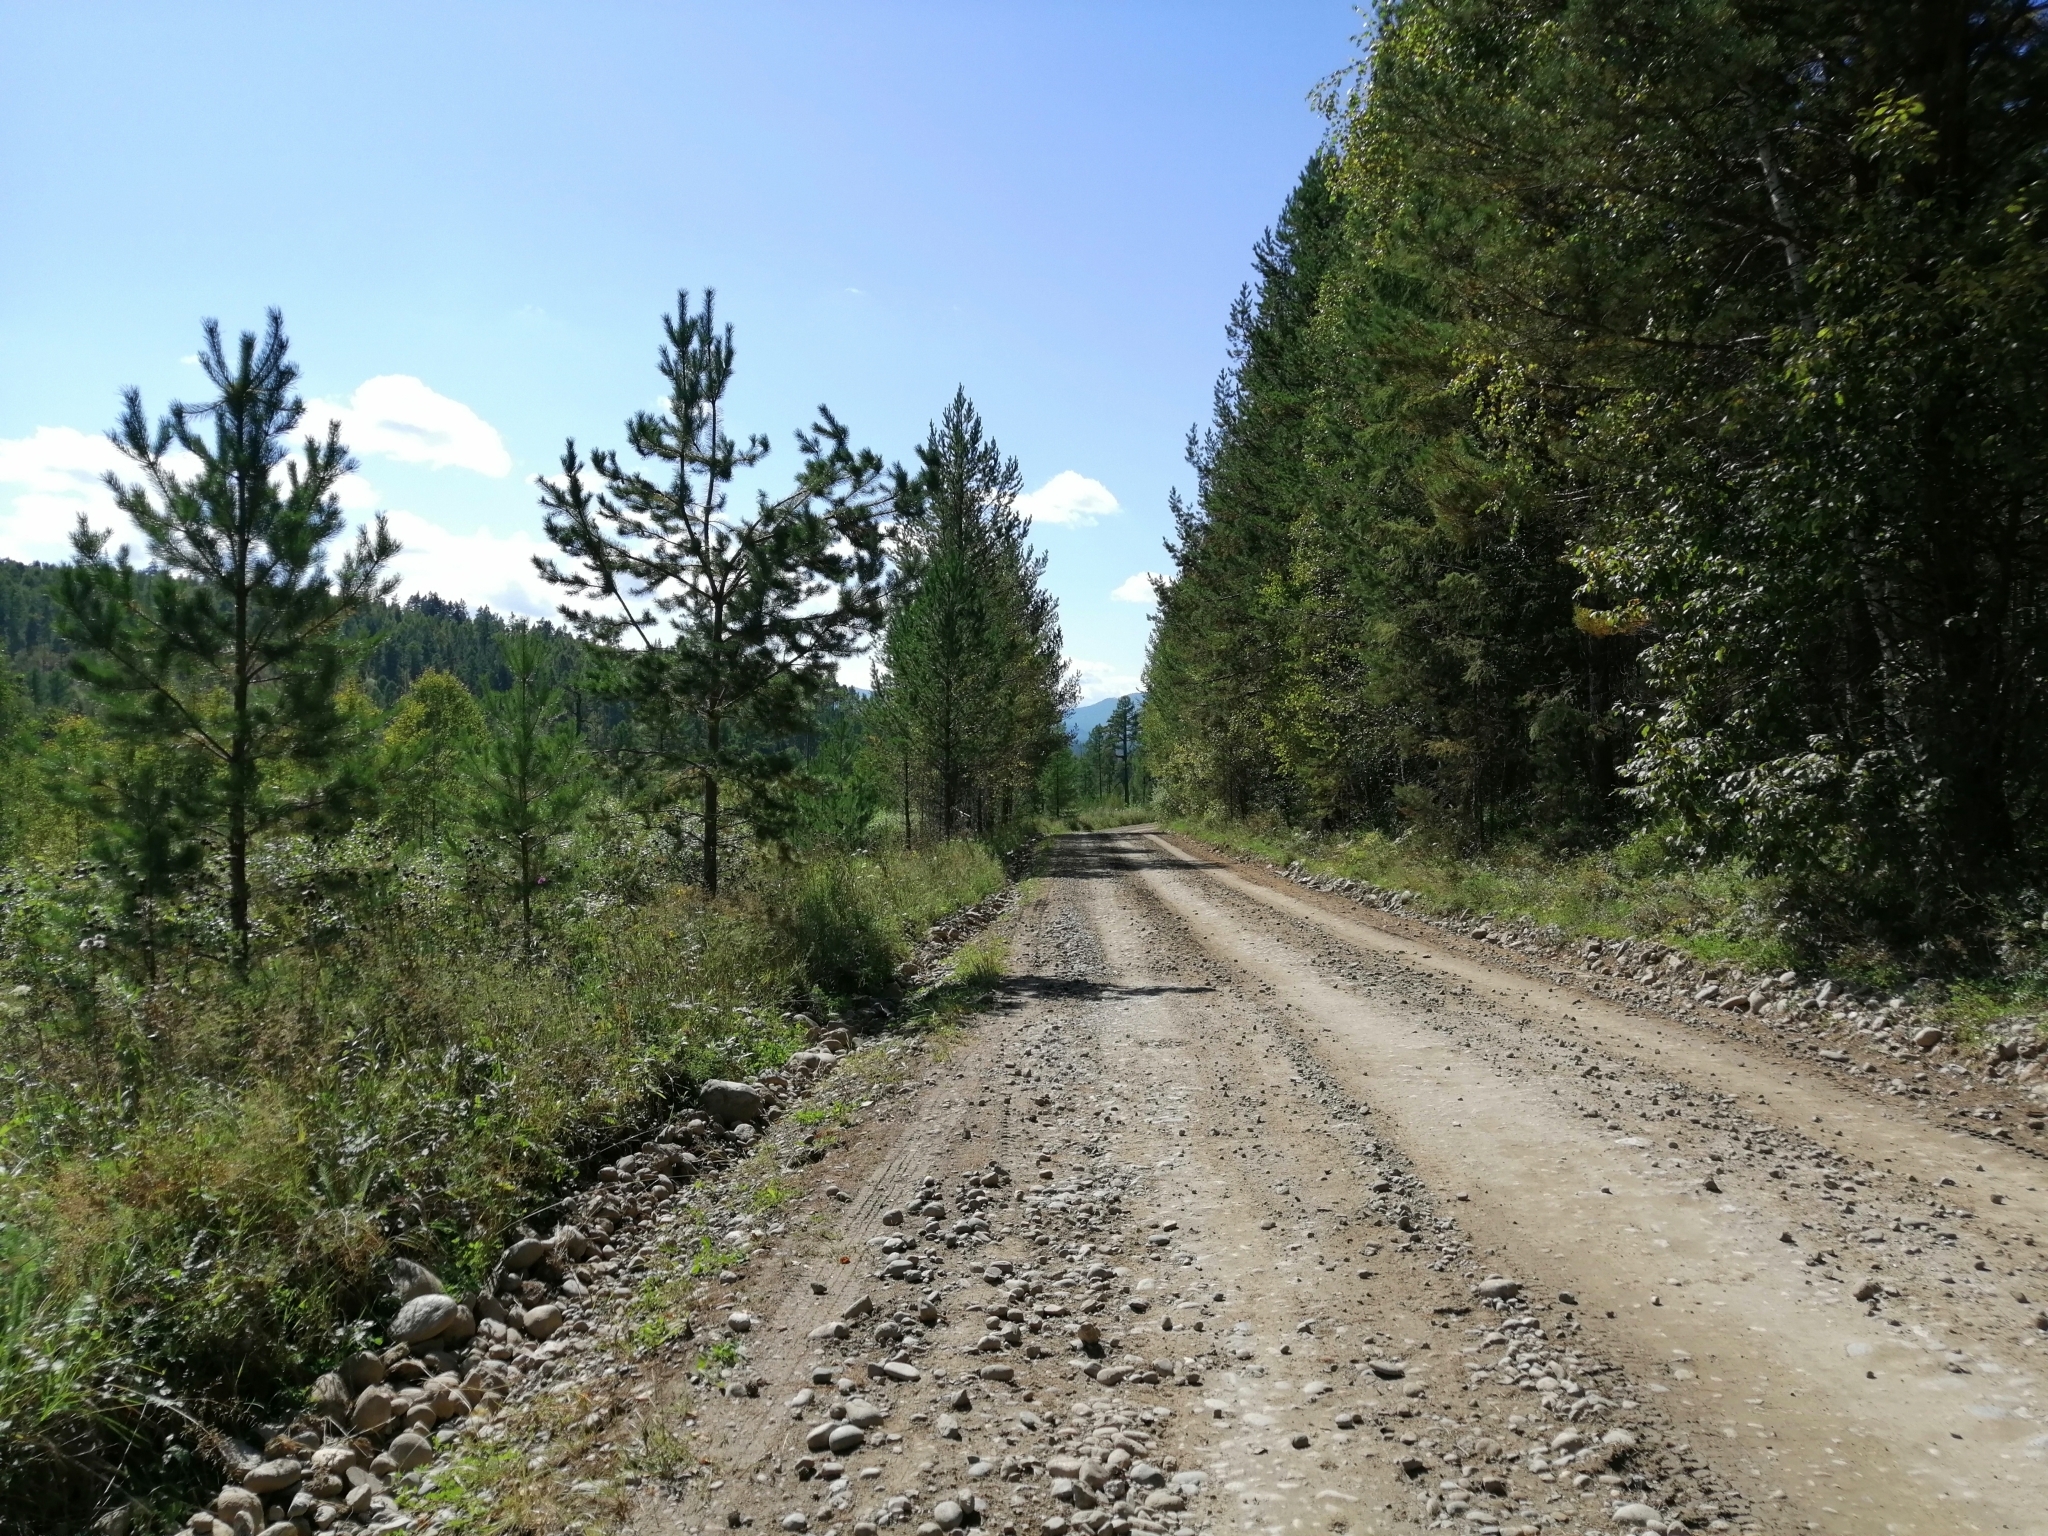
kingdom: Plantae
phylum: Tracheophyta
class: Pinopsida
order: Pinales
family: Pinaceae
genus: Pinus
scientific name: Pinus sylvestris
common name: Scots pine
